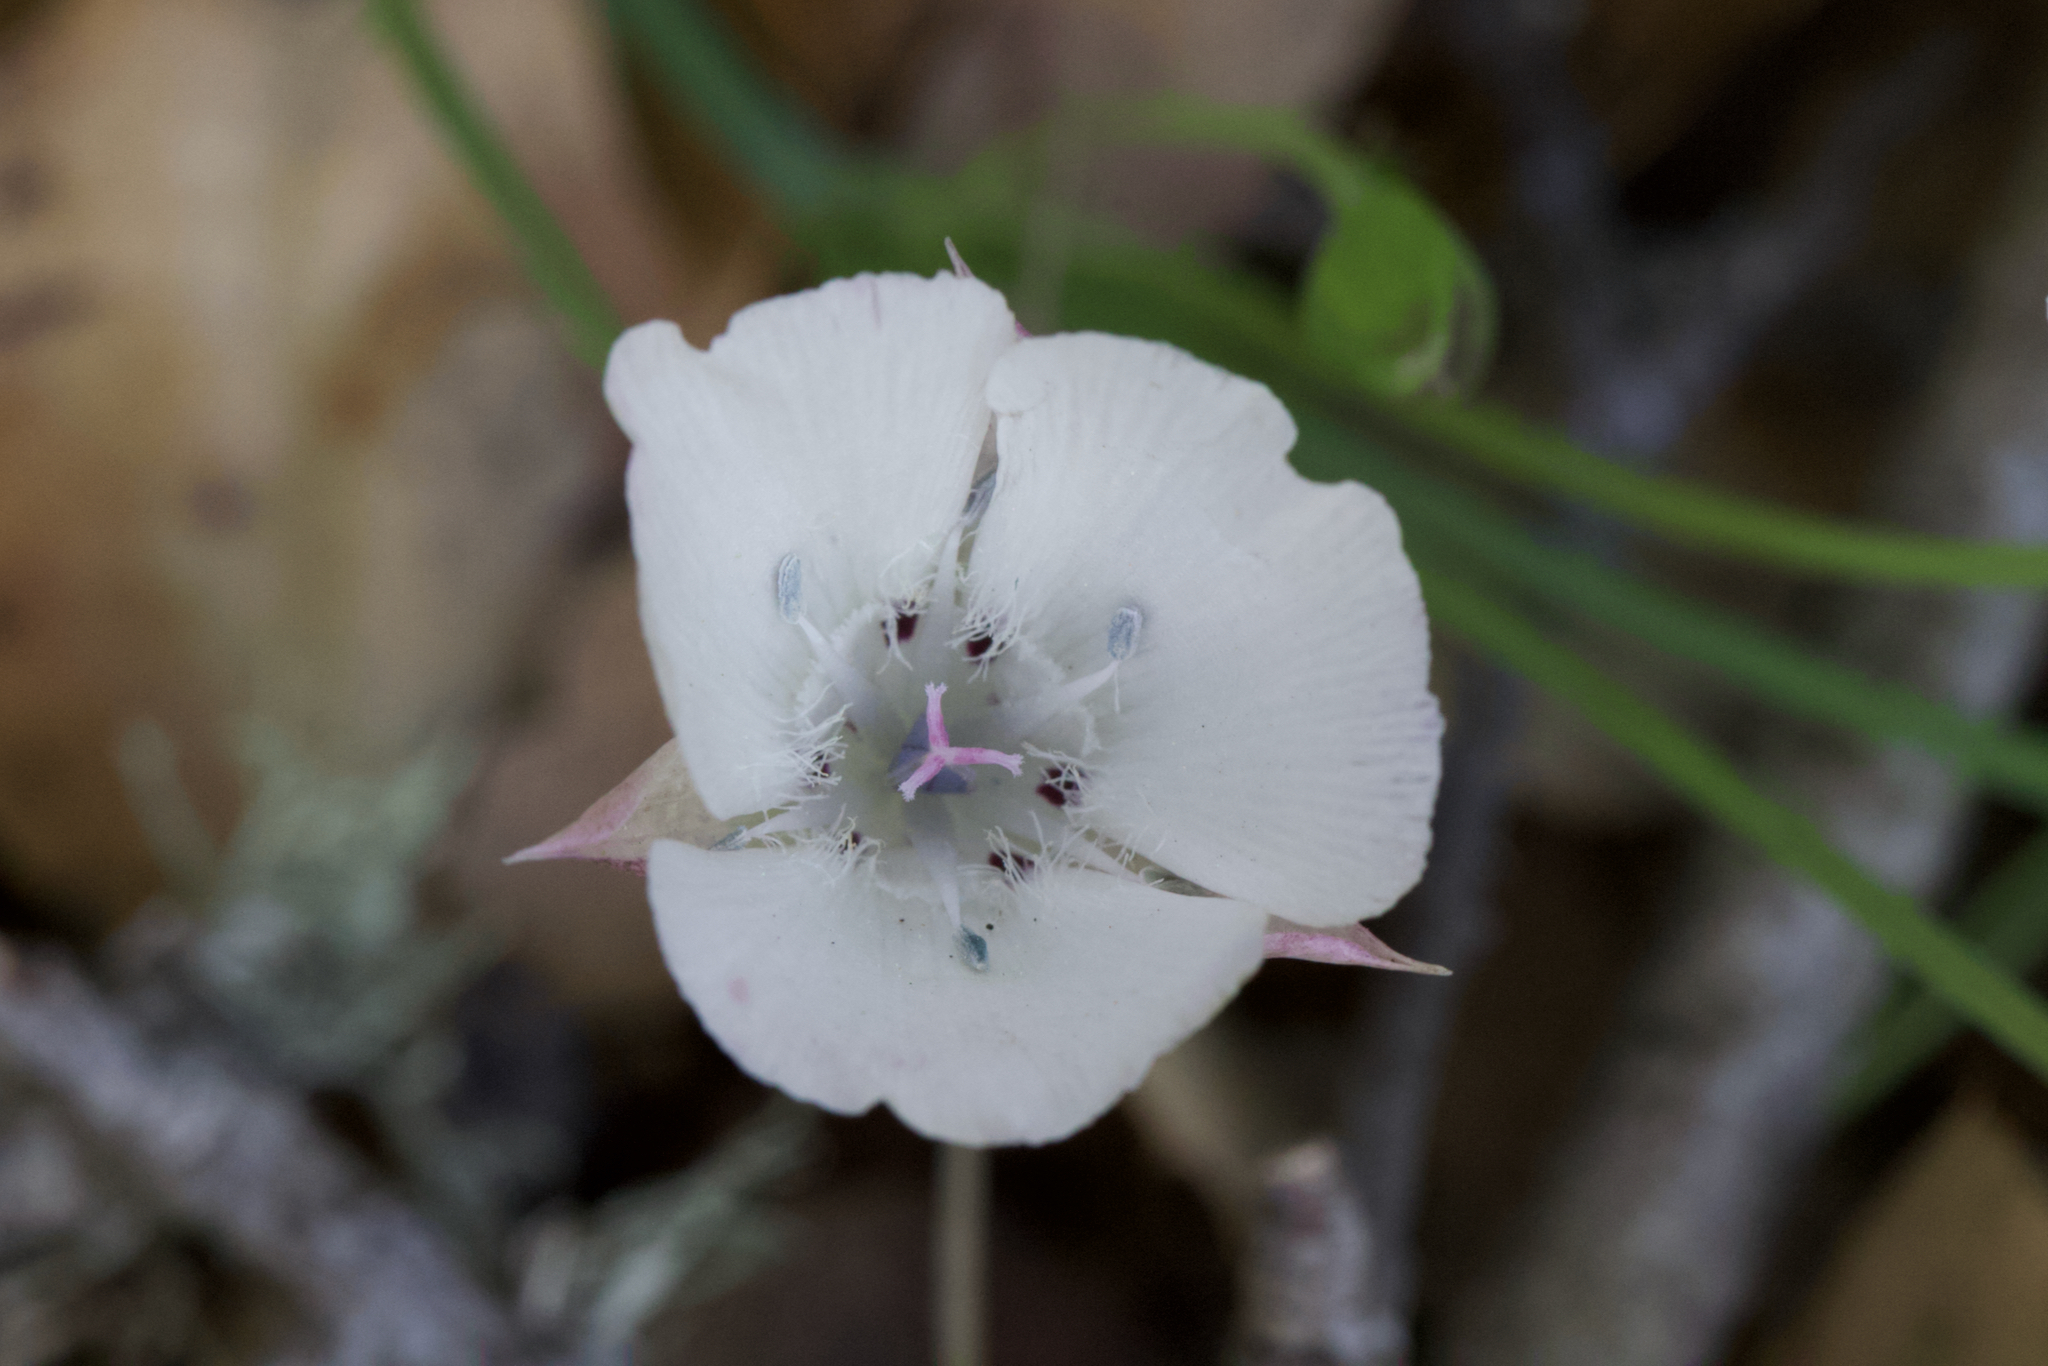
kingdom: Plantae
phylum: Tracheophyta
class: Liliopsida
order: Liliales
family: Liliaceae
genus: Calochortus
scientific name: Calochortus umbellatus
